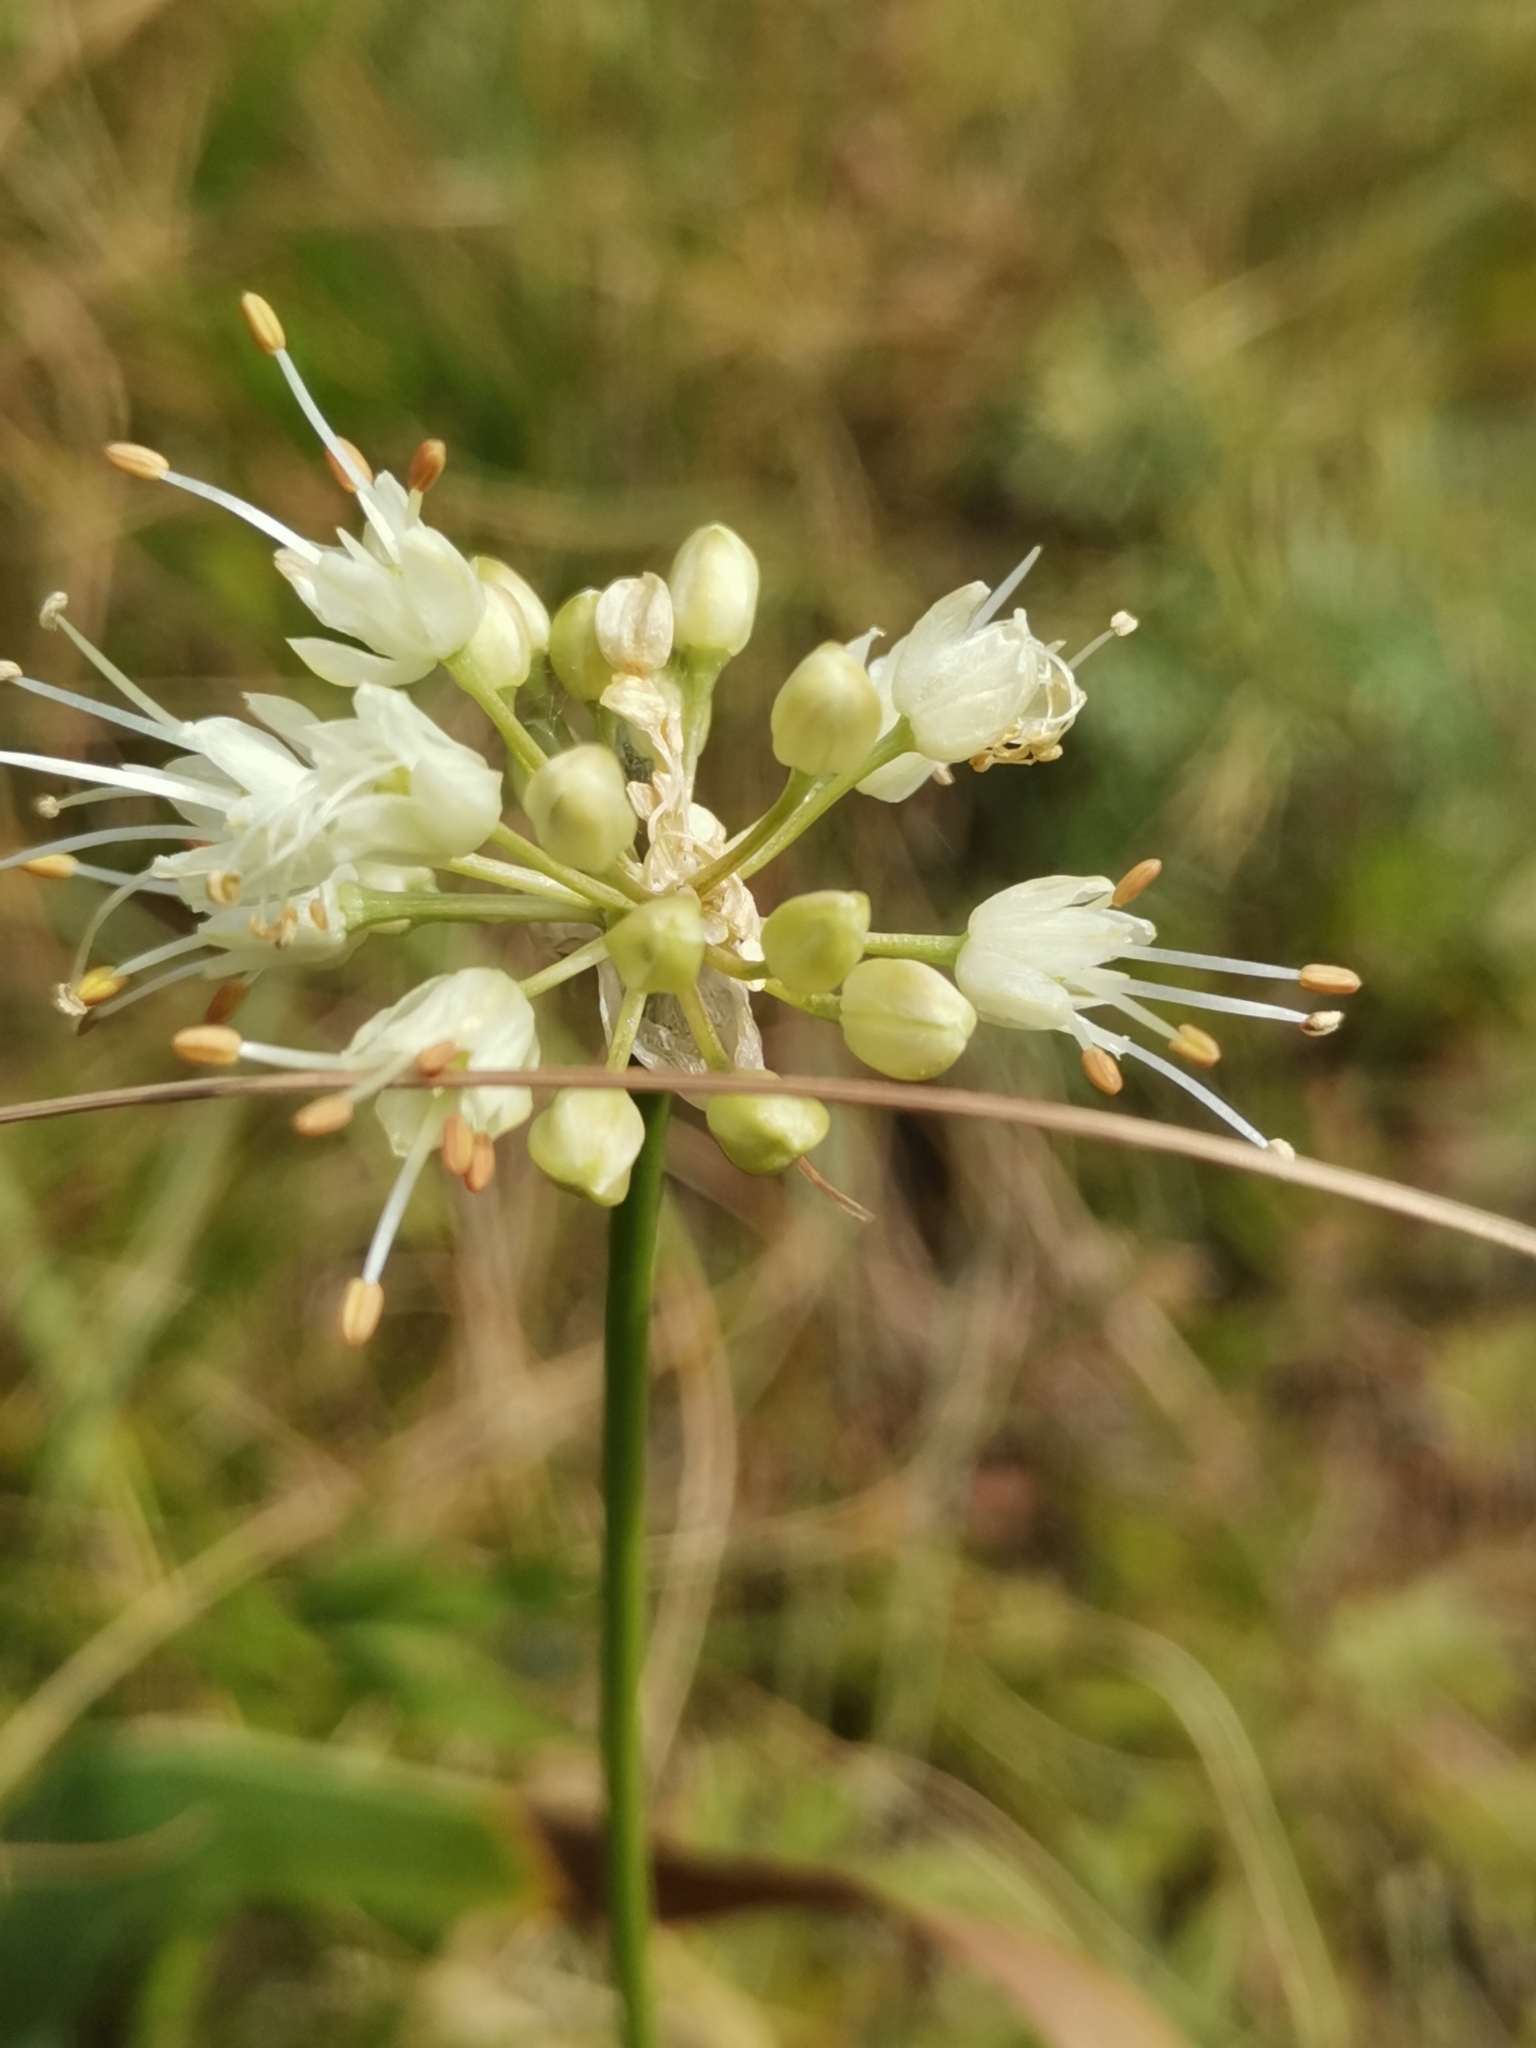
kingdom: Plantae
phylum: Tracheophyta
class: Liliopsida
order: Asparagales
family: Amaryllidaceae
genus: Allium
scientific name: Allium ericetorum
